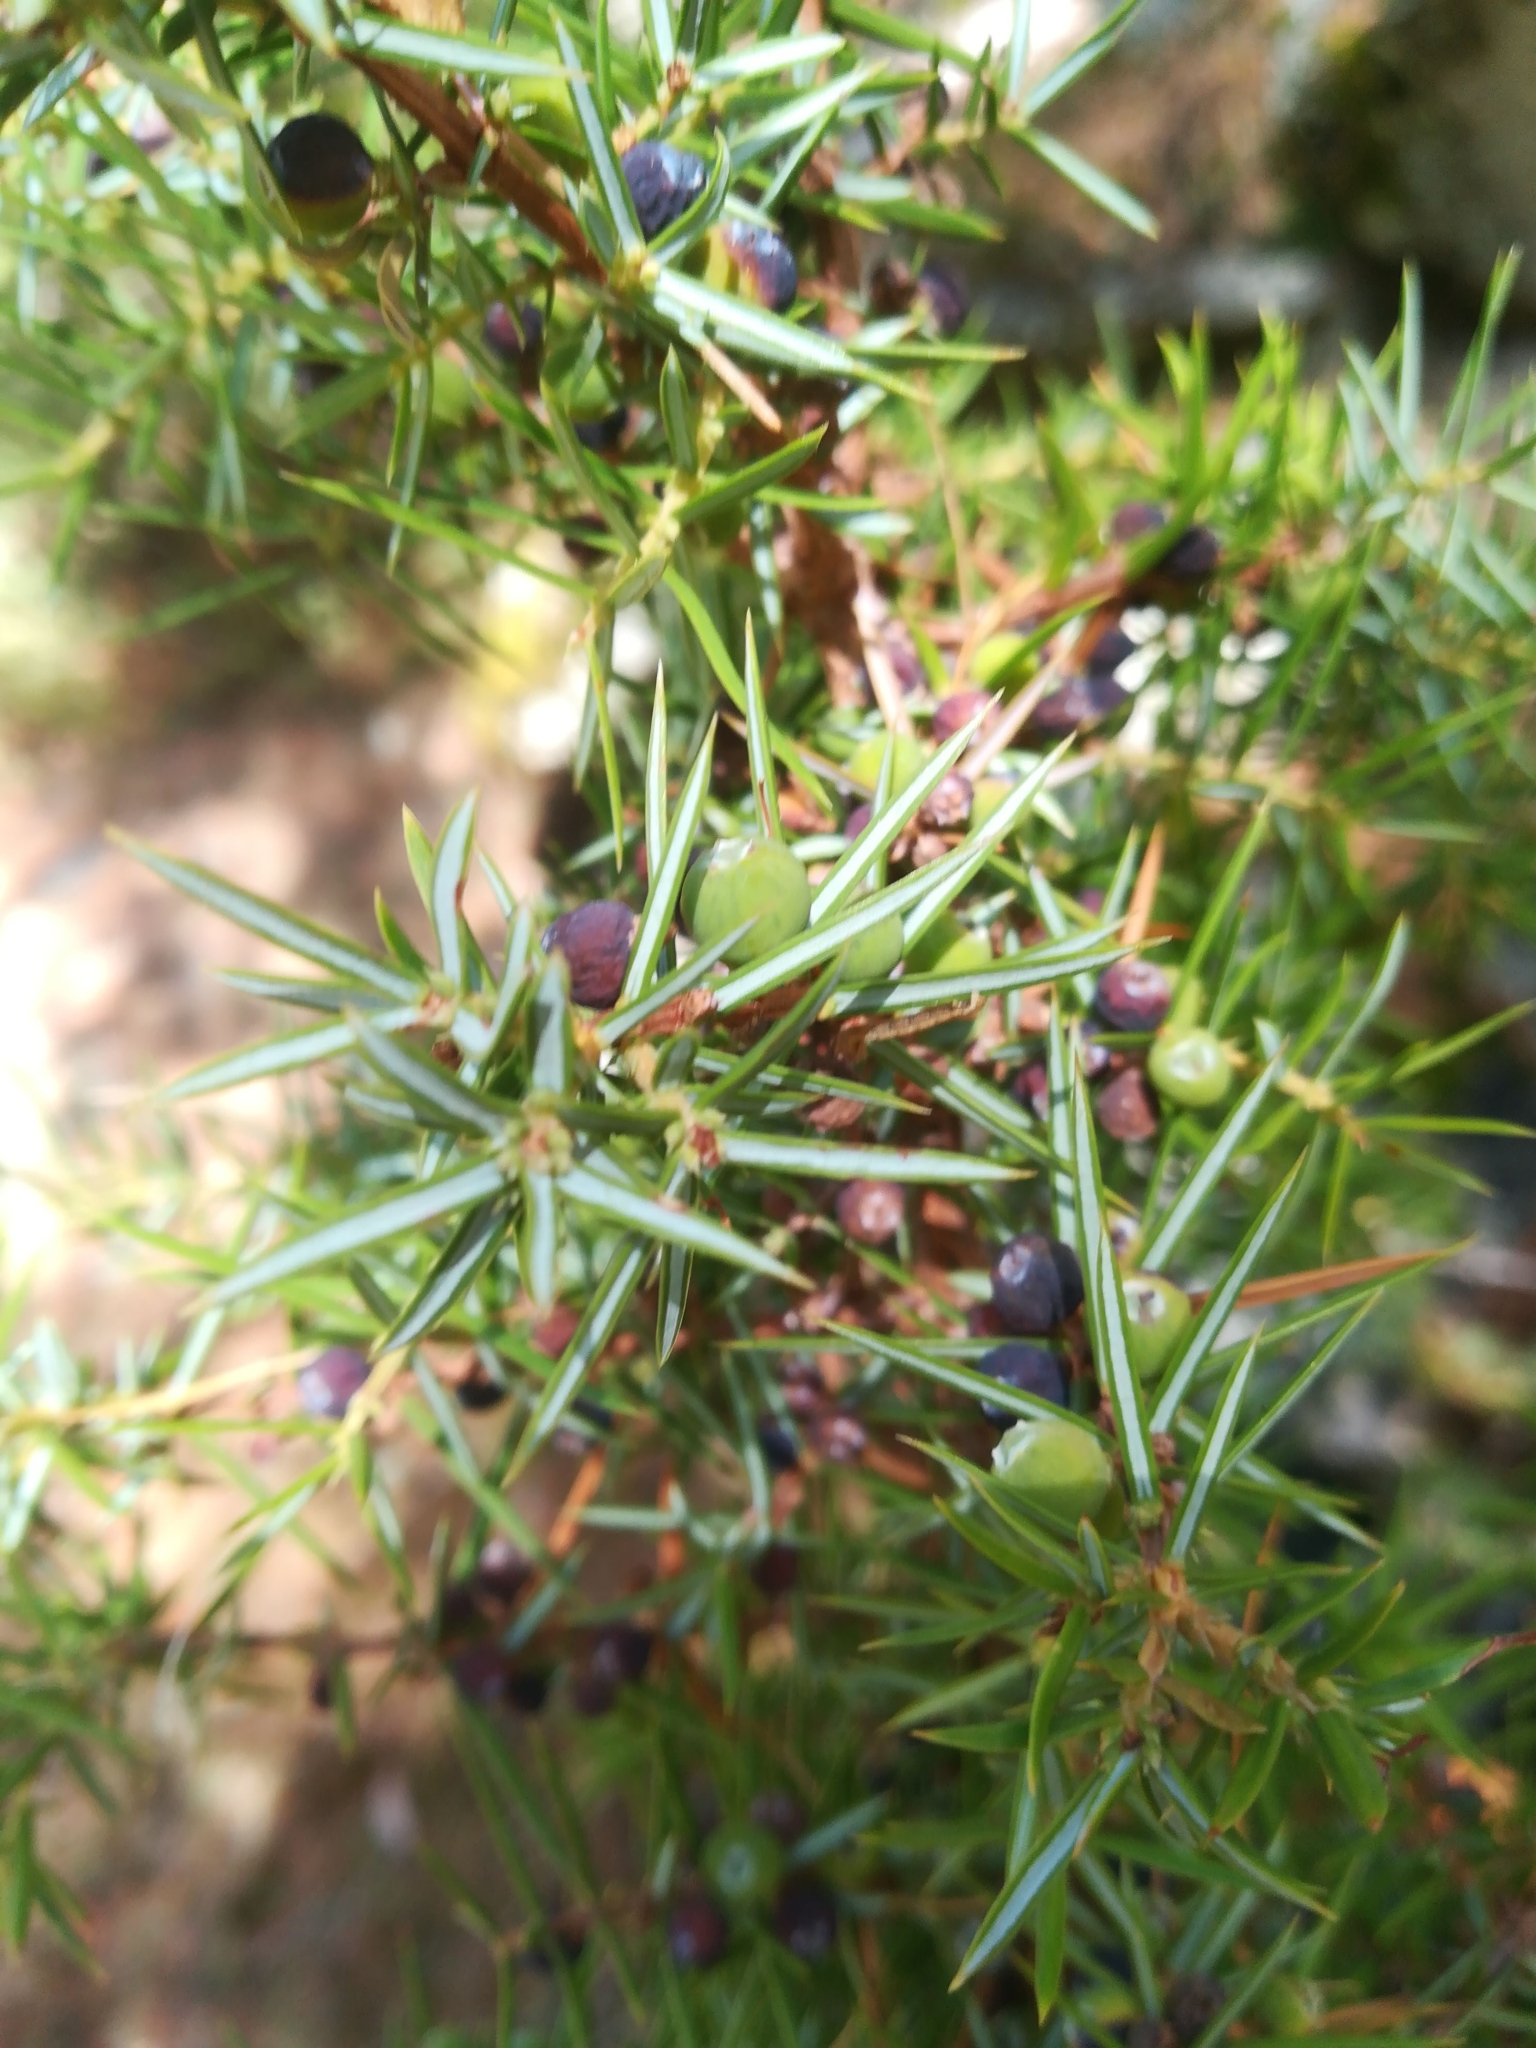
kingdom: Plantae
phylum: Tracheophyta
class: Pinopsida
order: Pinales
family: Cupressaceae
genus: Juniperus
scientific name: Juniperus communis
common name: Common juniper
